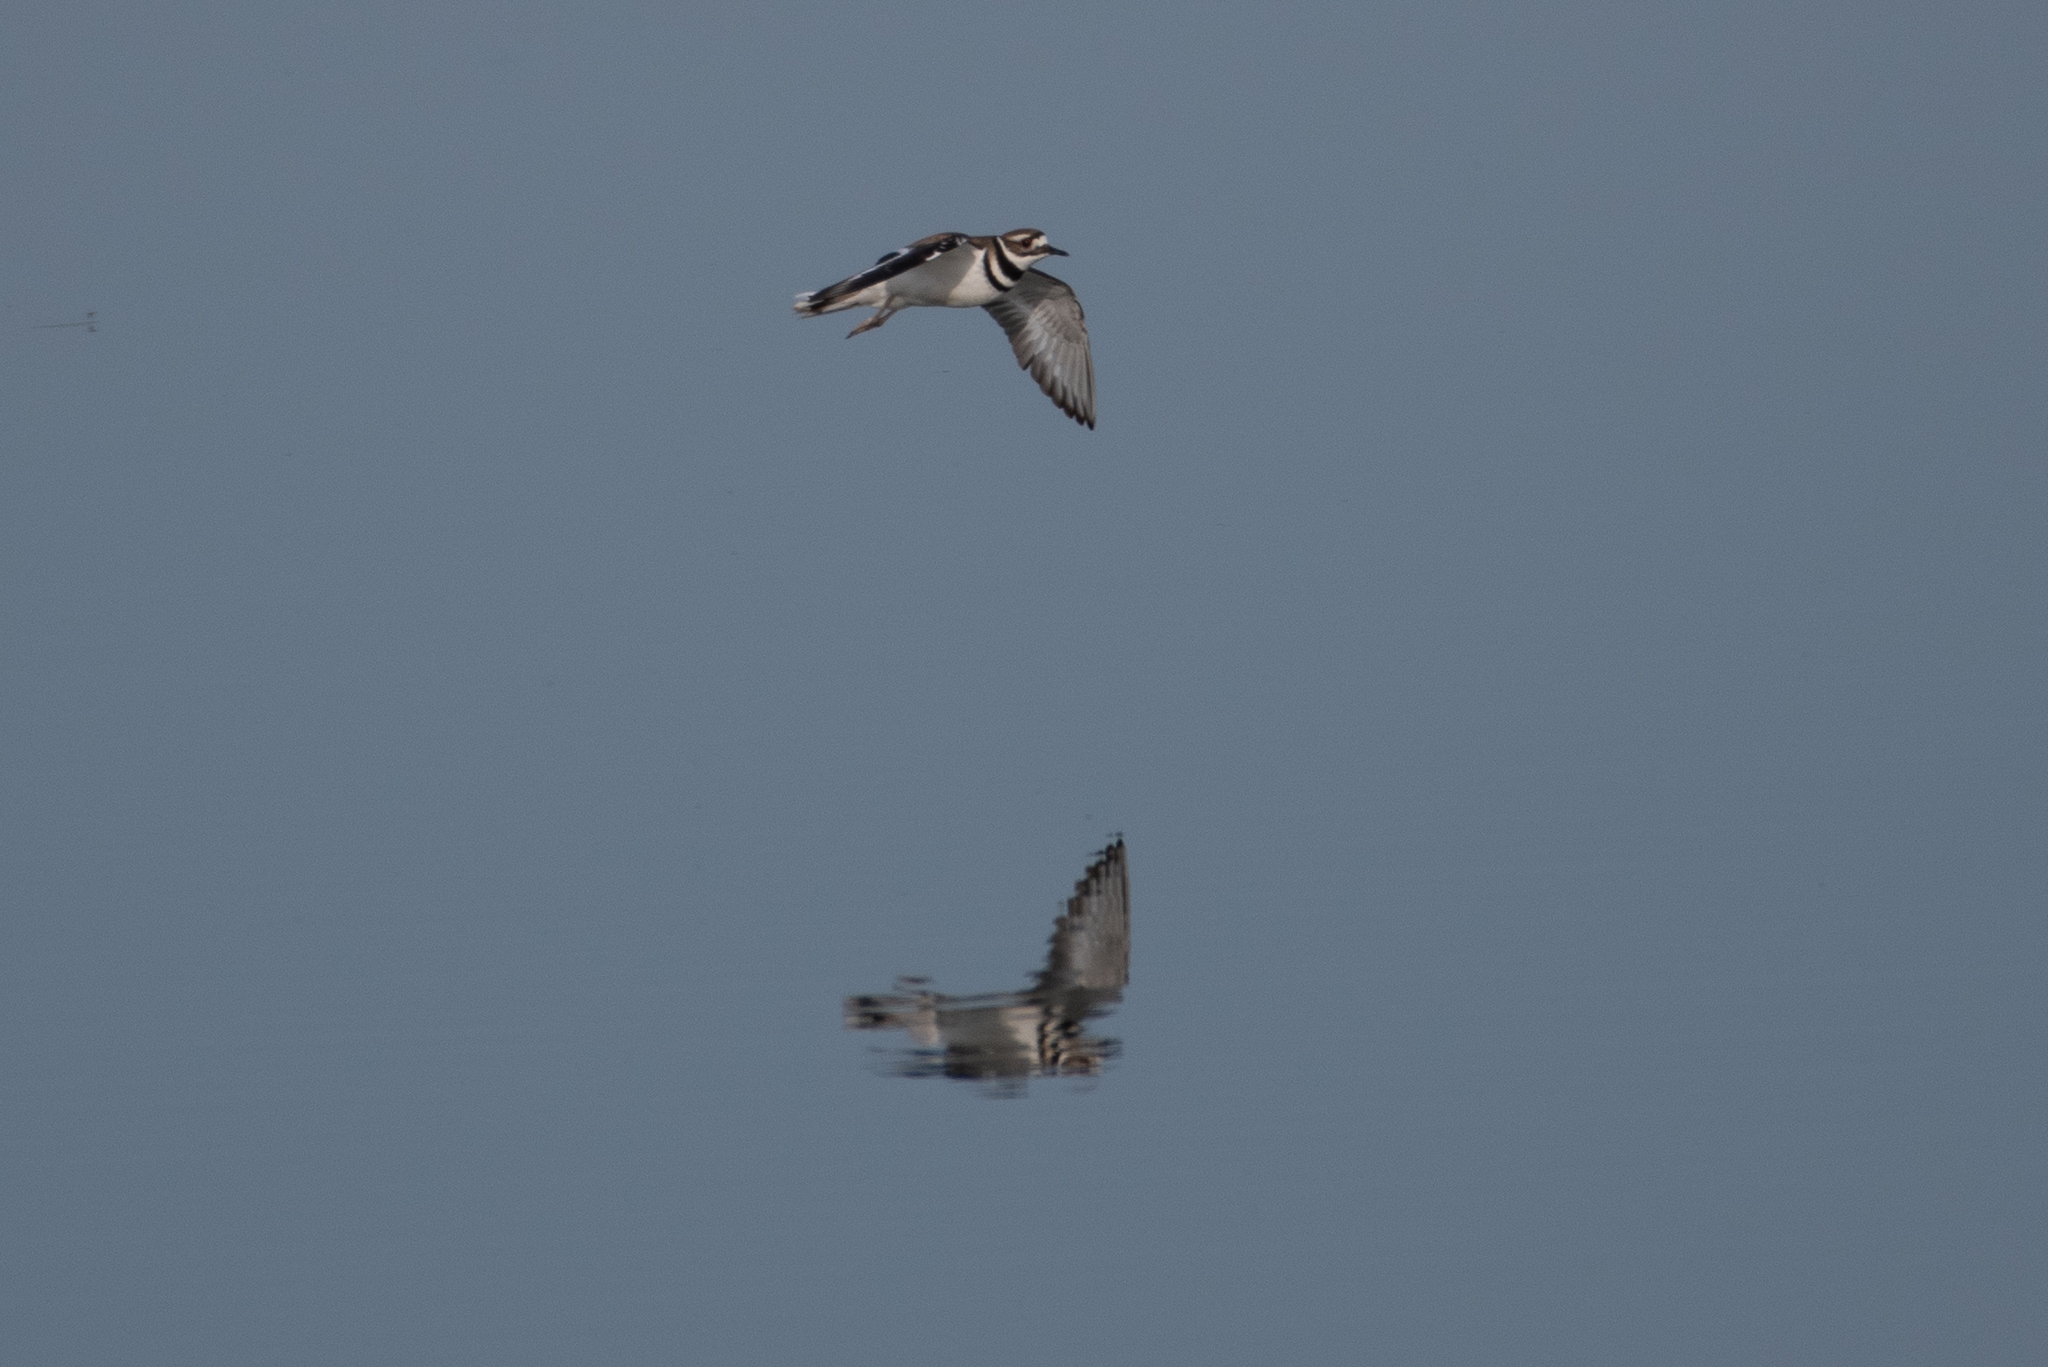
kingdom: Animalia
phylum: Chordata
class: Aves
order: Charadriiformes
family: Charadriidae
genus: Charadrius
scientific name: Charadrius vociferus
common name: Killdeer
